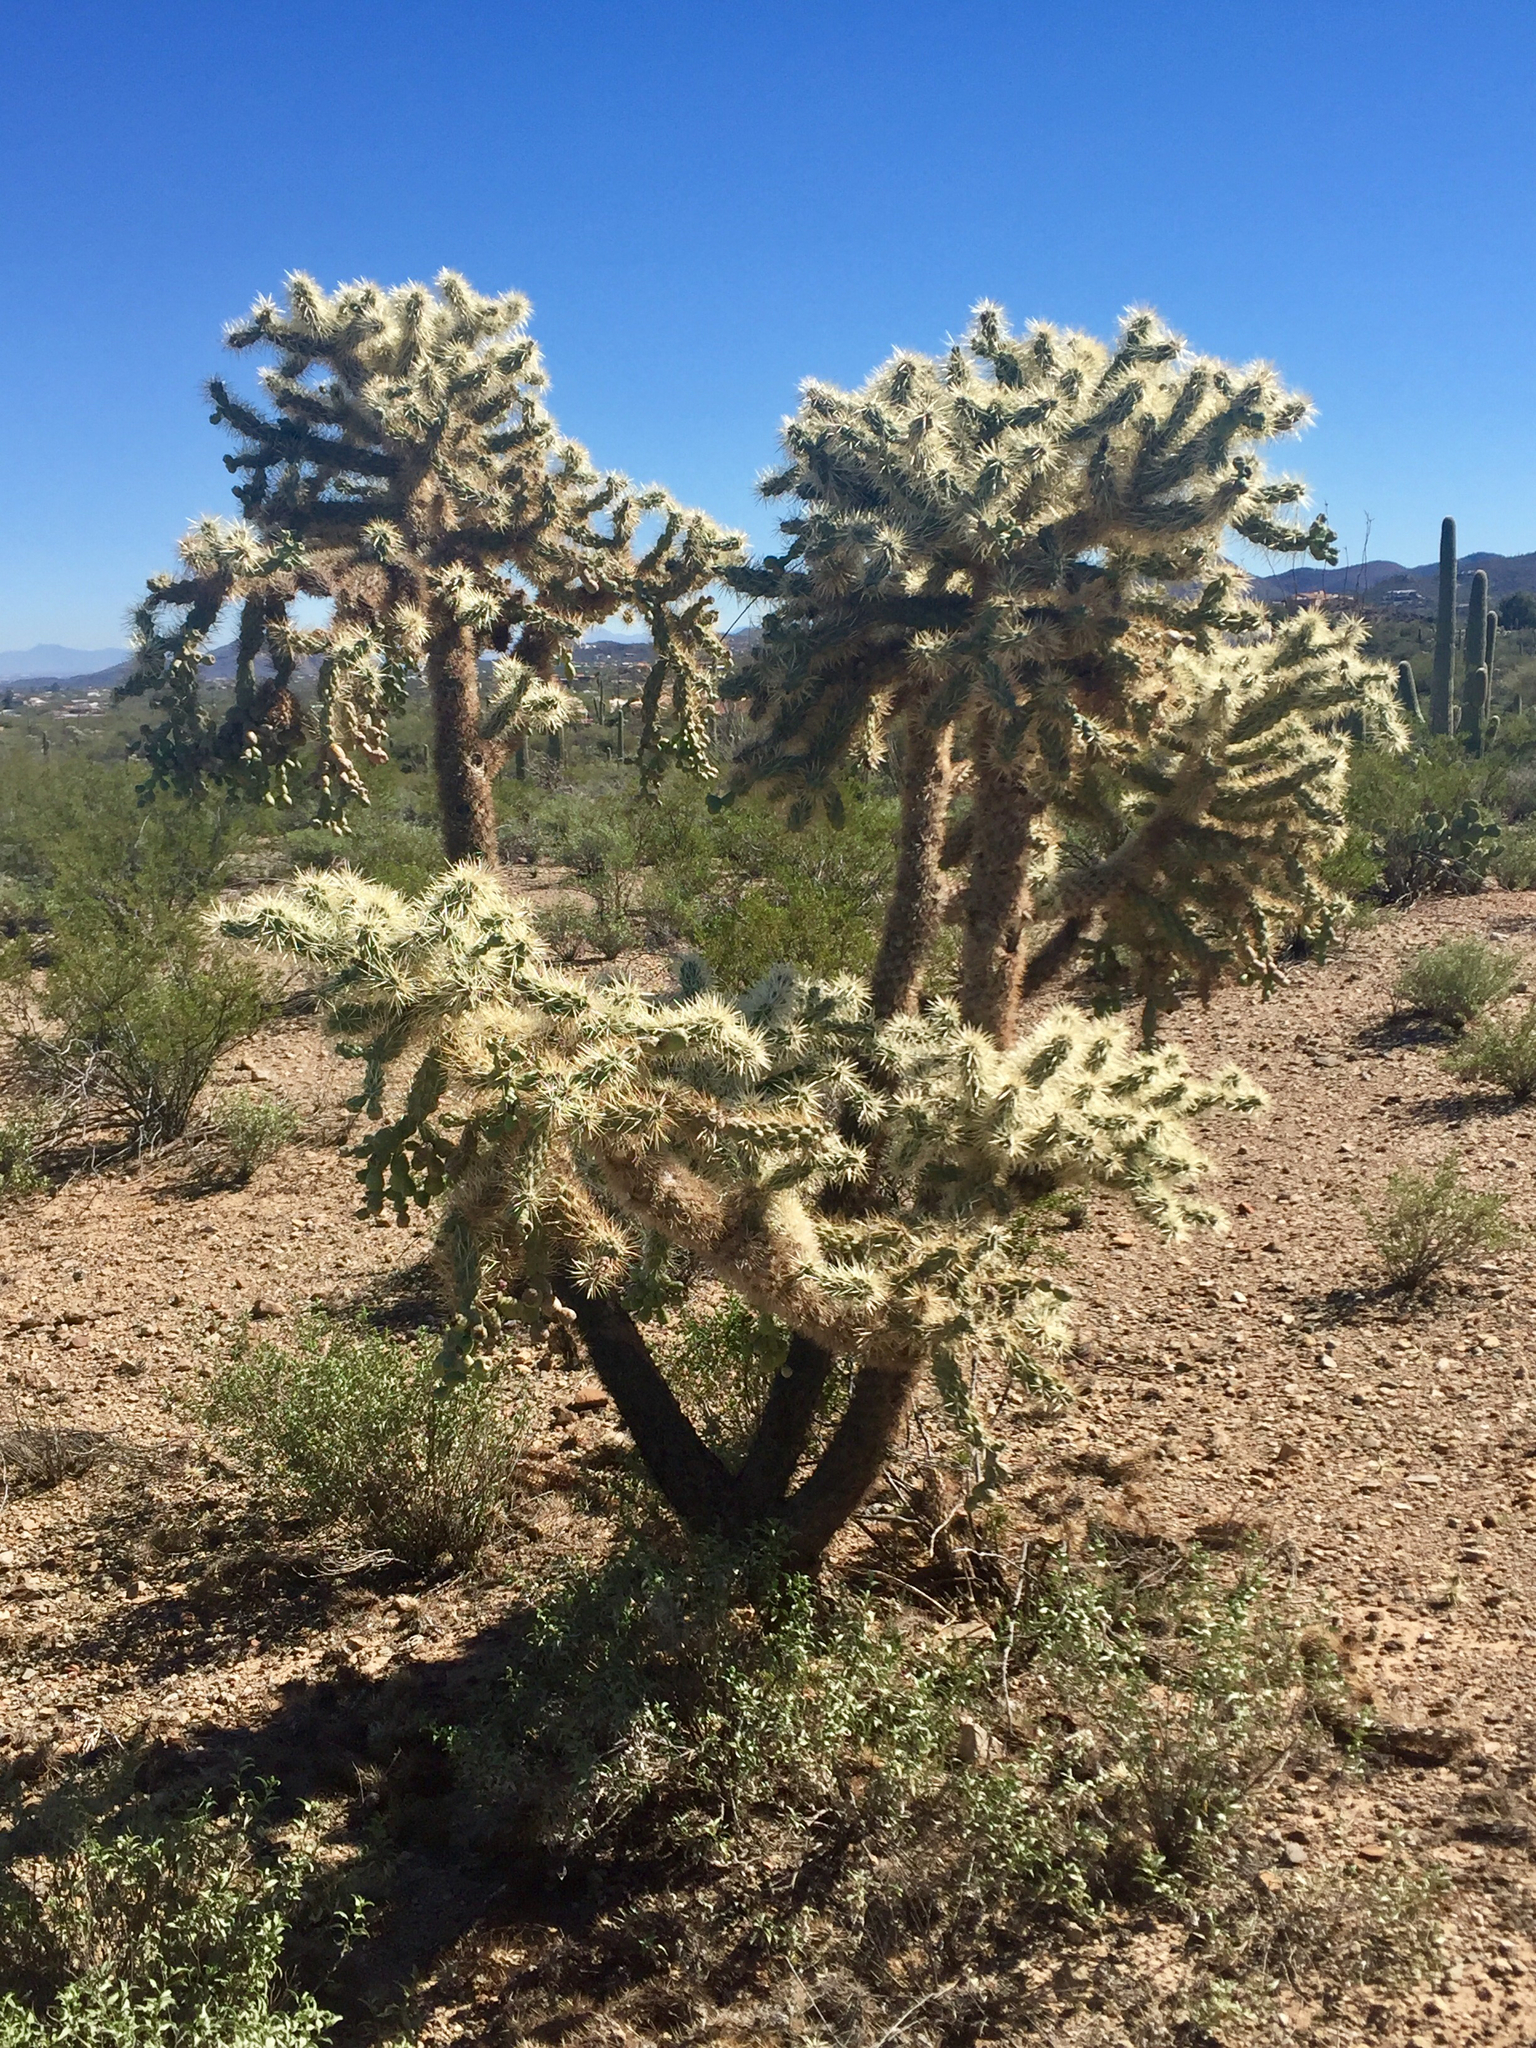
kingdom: Plantae
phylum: Tracheophyta
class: Magnoliopsida
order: Caryophyllales
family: Cactaceae
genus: Cylindropuntia
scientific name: Cylindropuntia fulgida
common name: Jumping cholla
